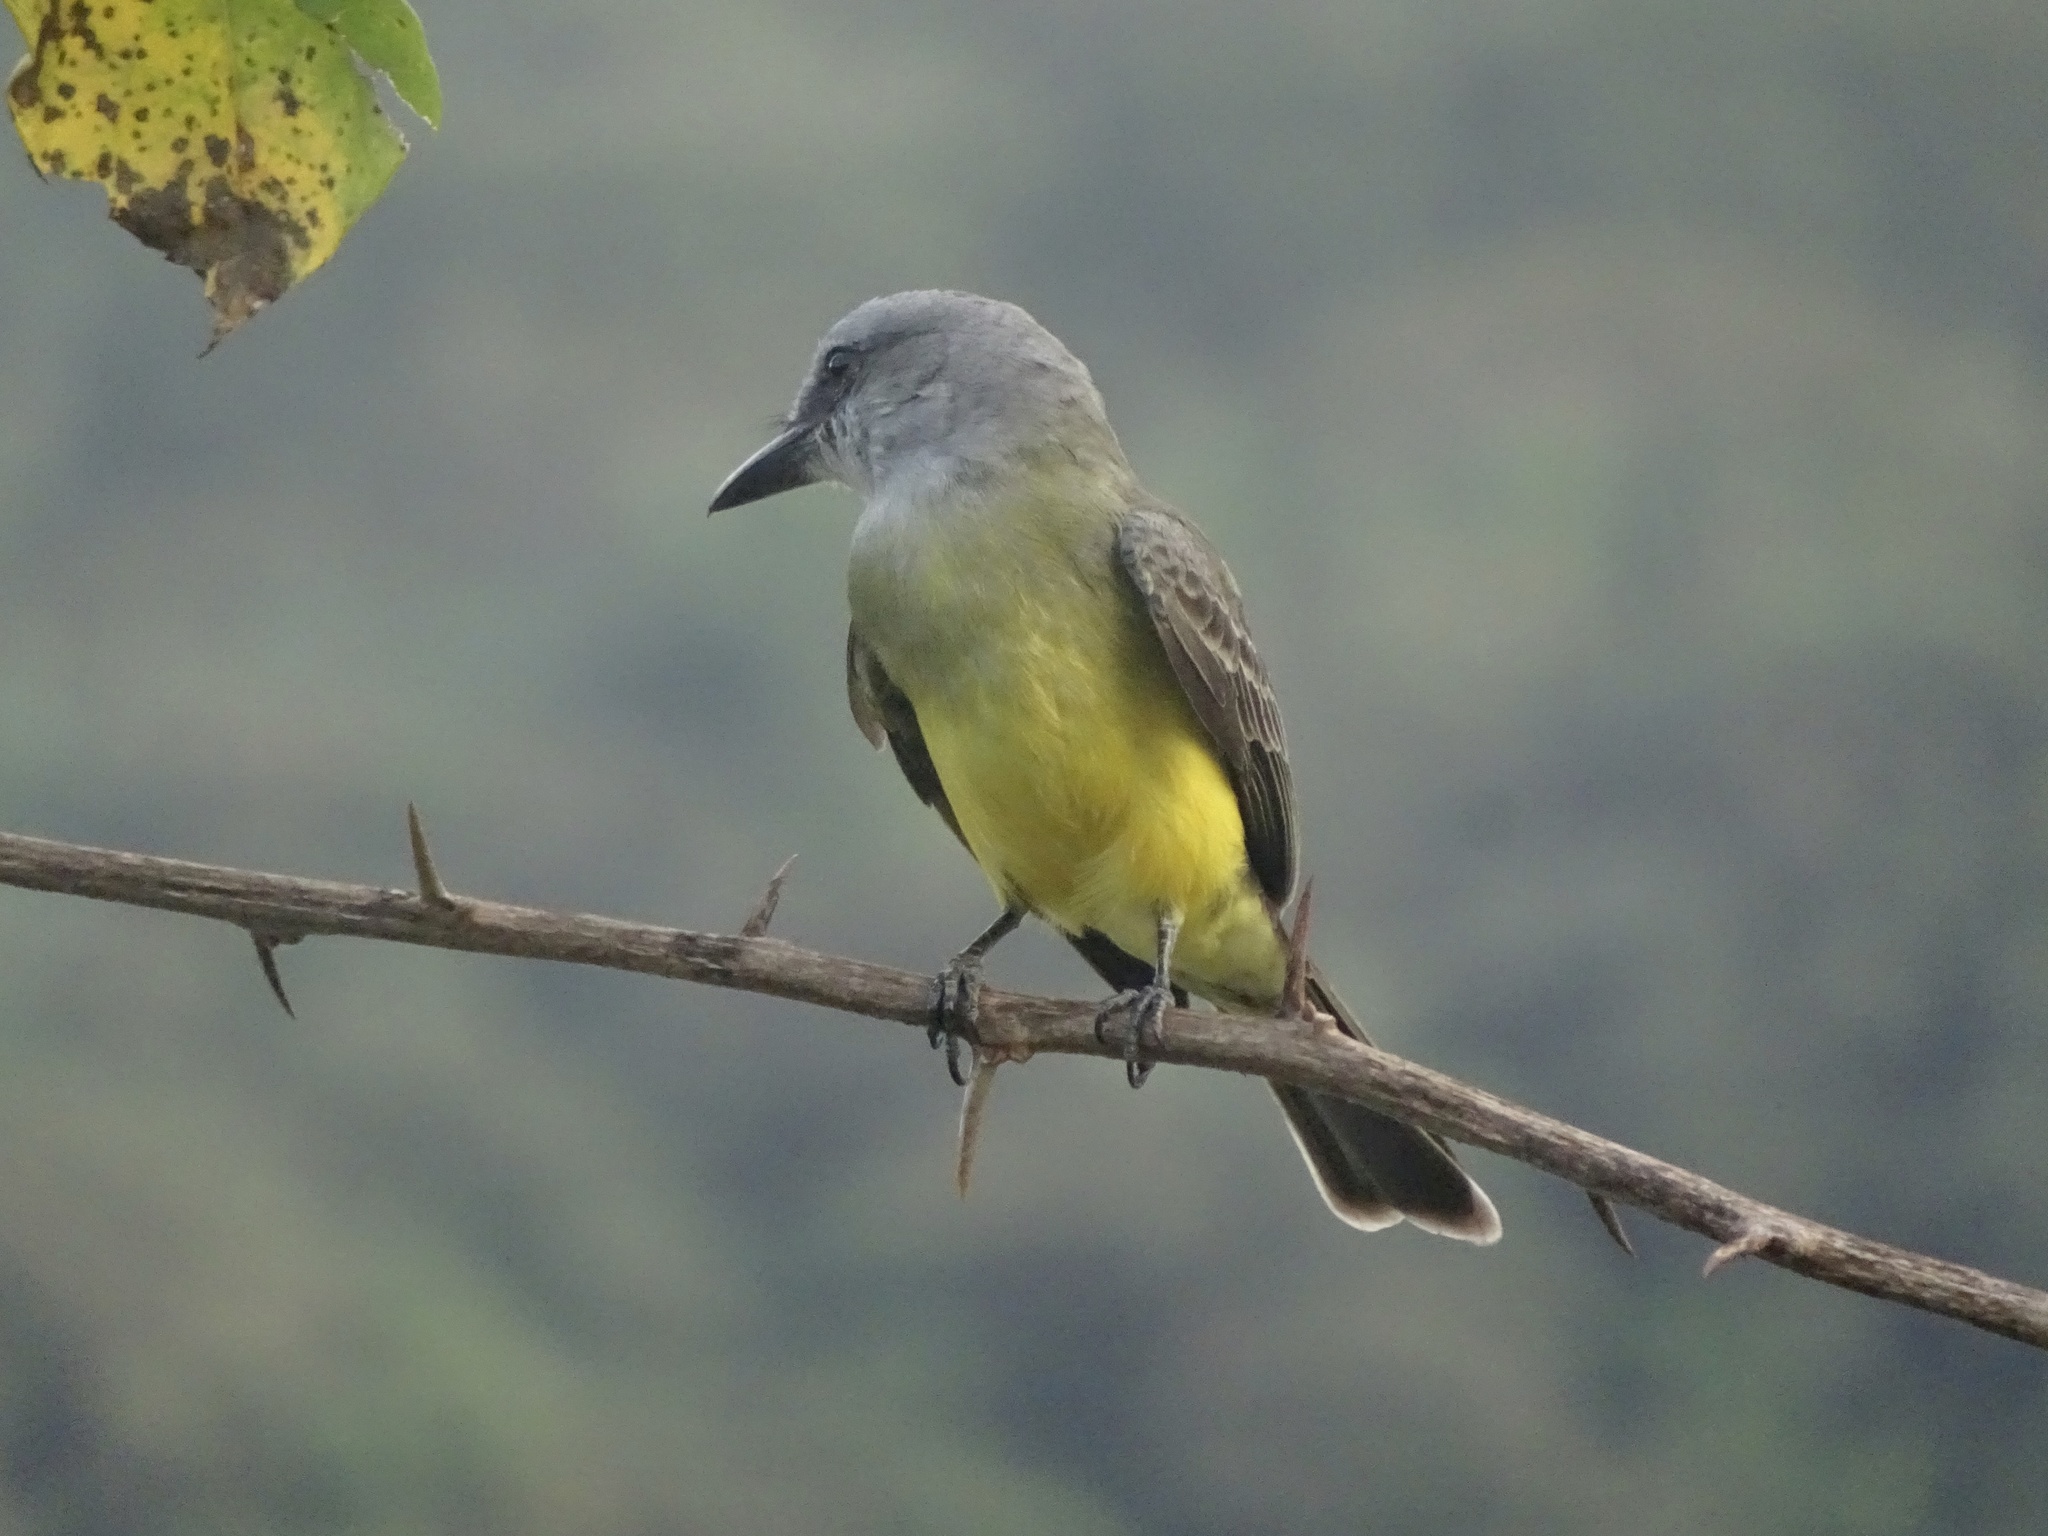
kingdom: Animalia
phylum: Chordata
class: Aves
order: Passeriformes
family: Tyrannidae
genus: Tyrannus
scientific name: Tyrannus melancholicus
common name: Tropical kingbird
